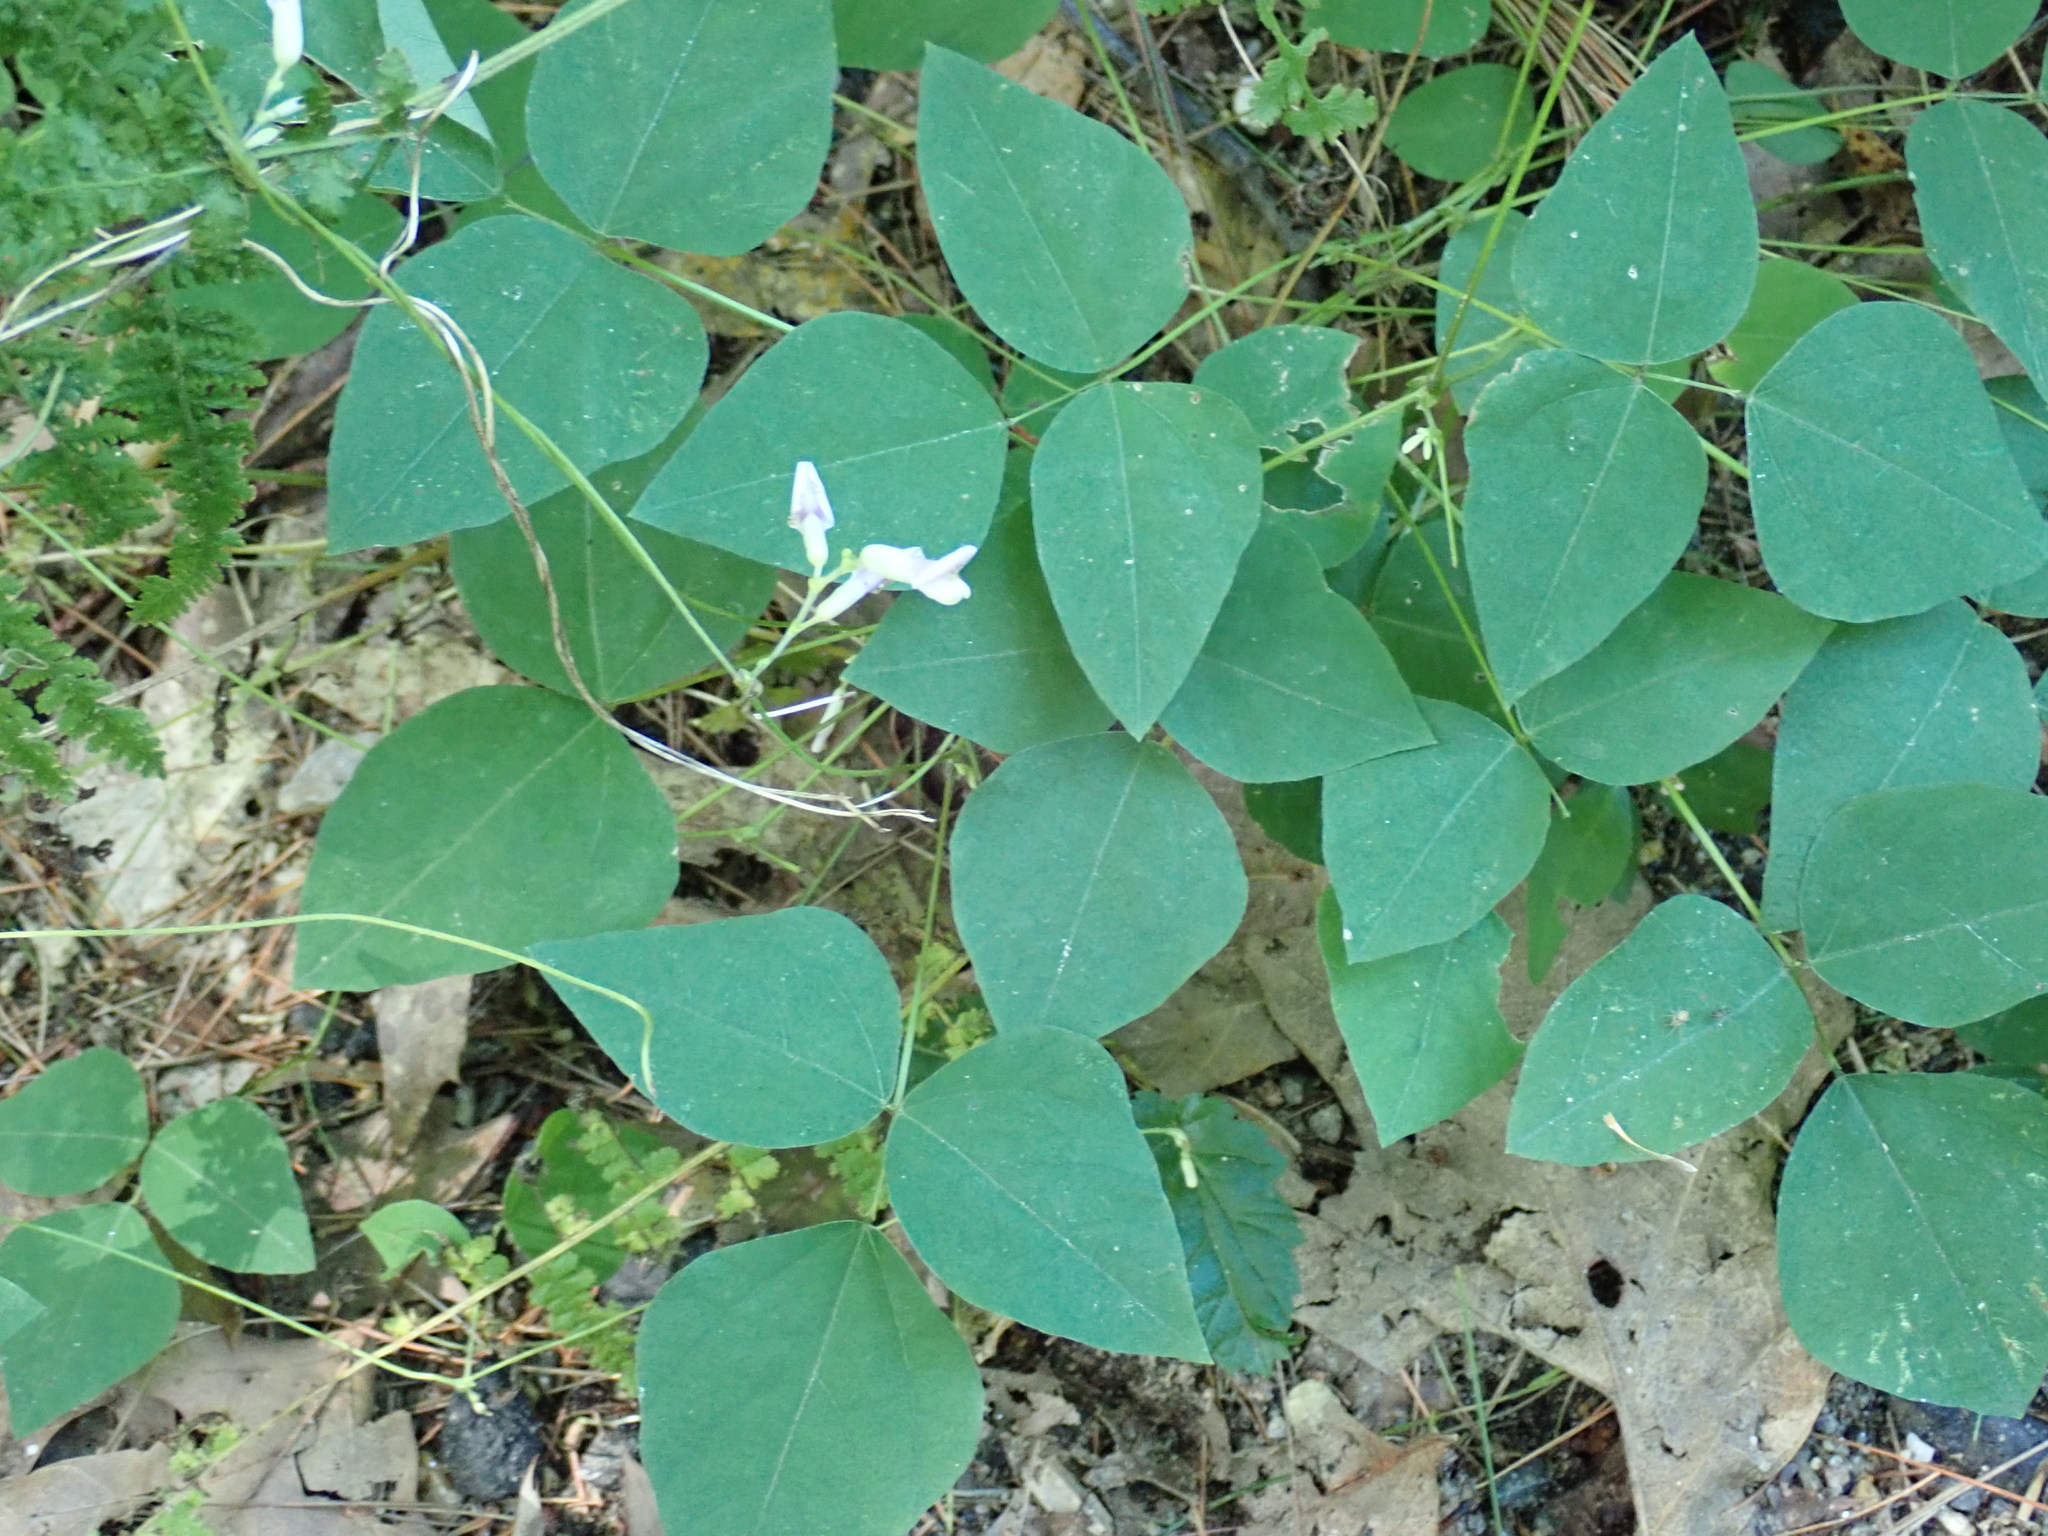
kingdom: Plantae
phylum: Tracheophyta
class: Magnoliopsida
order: Fabales
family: Fabaceae
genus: Amphicarpaea
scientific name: Amphicarpaea bracteata
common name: American hog peanut
